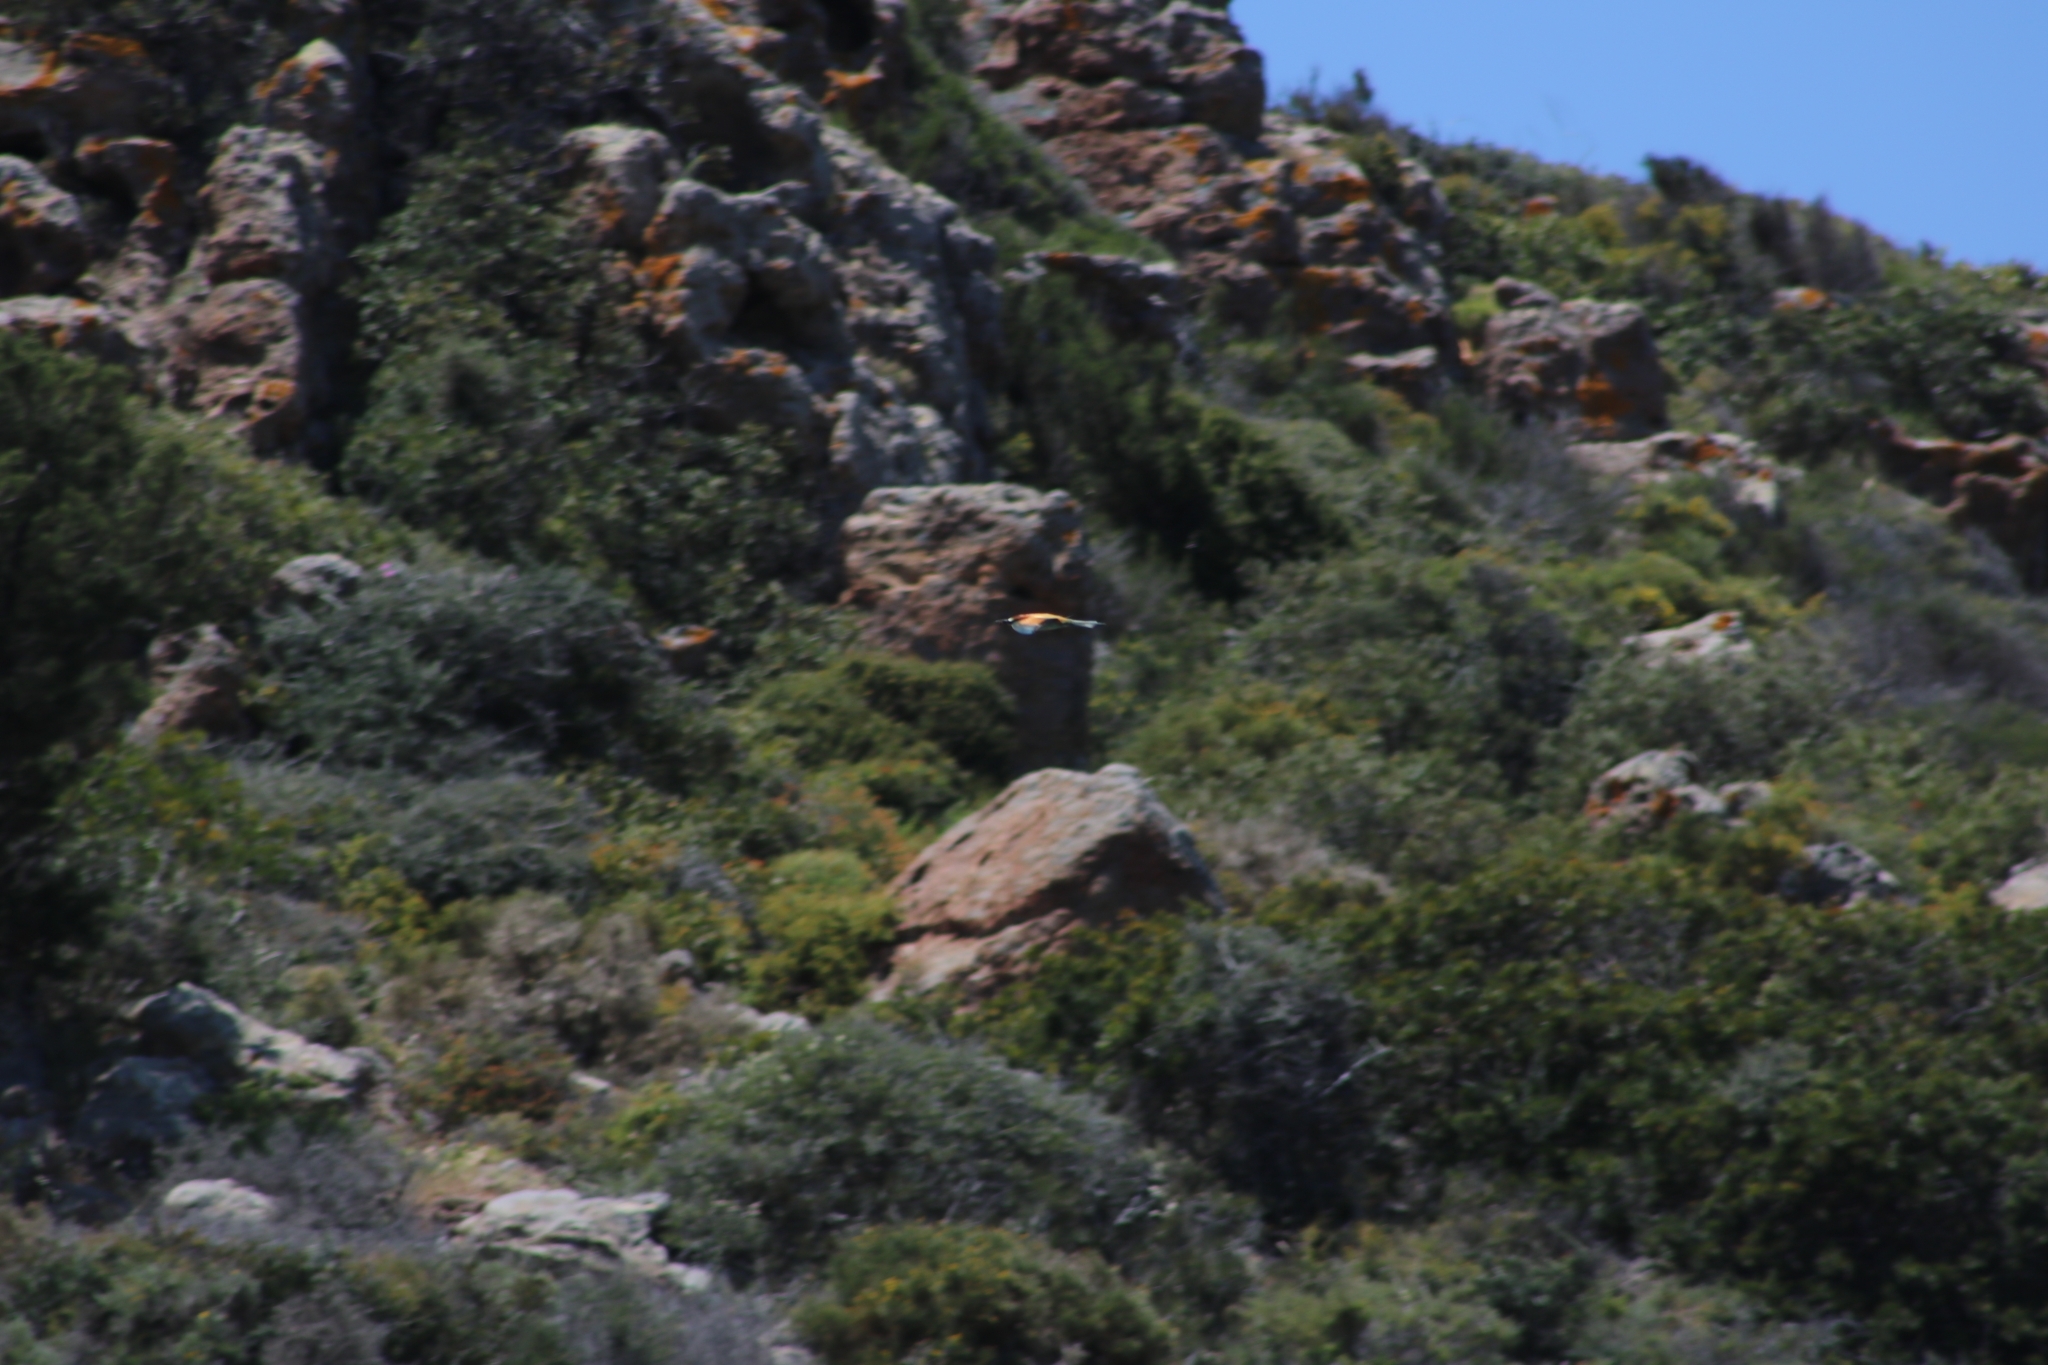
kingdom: Animalia
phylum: Chordata
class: Aves
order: Coraciiformes
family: Meropidae
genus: Merops
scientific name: Merops apiaster
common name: European bee-eater
